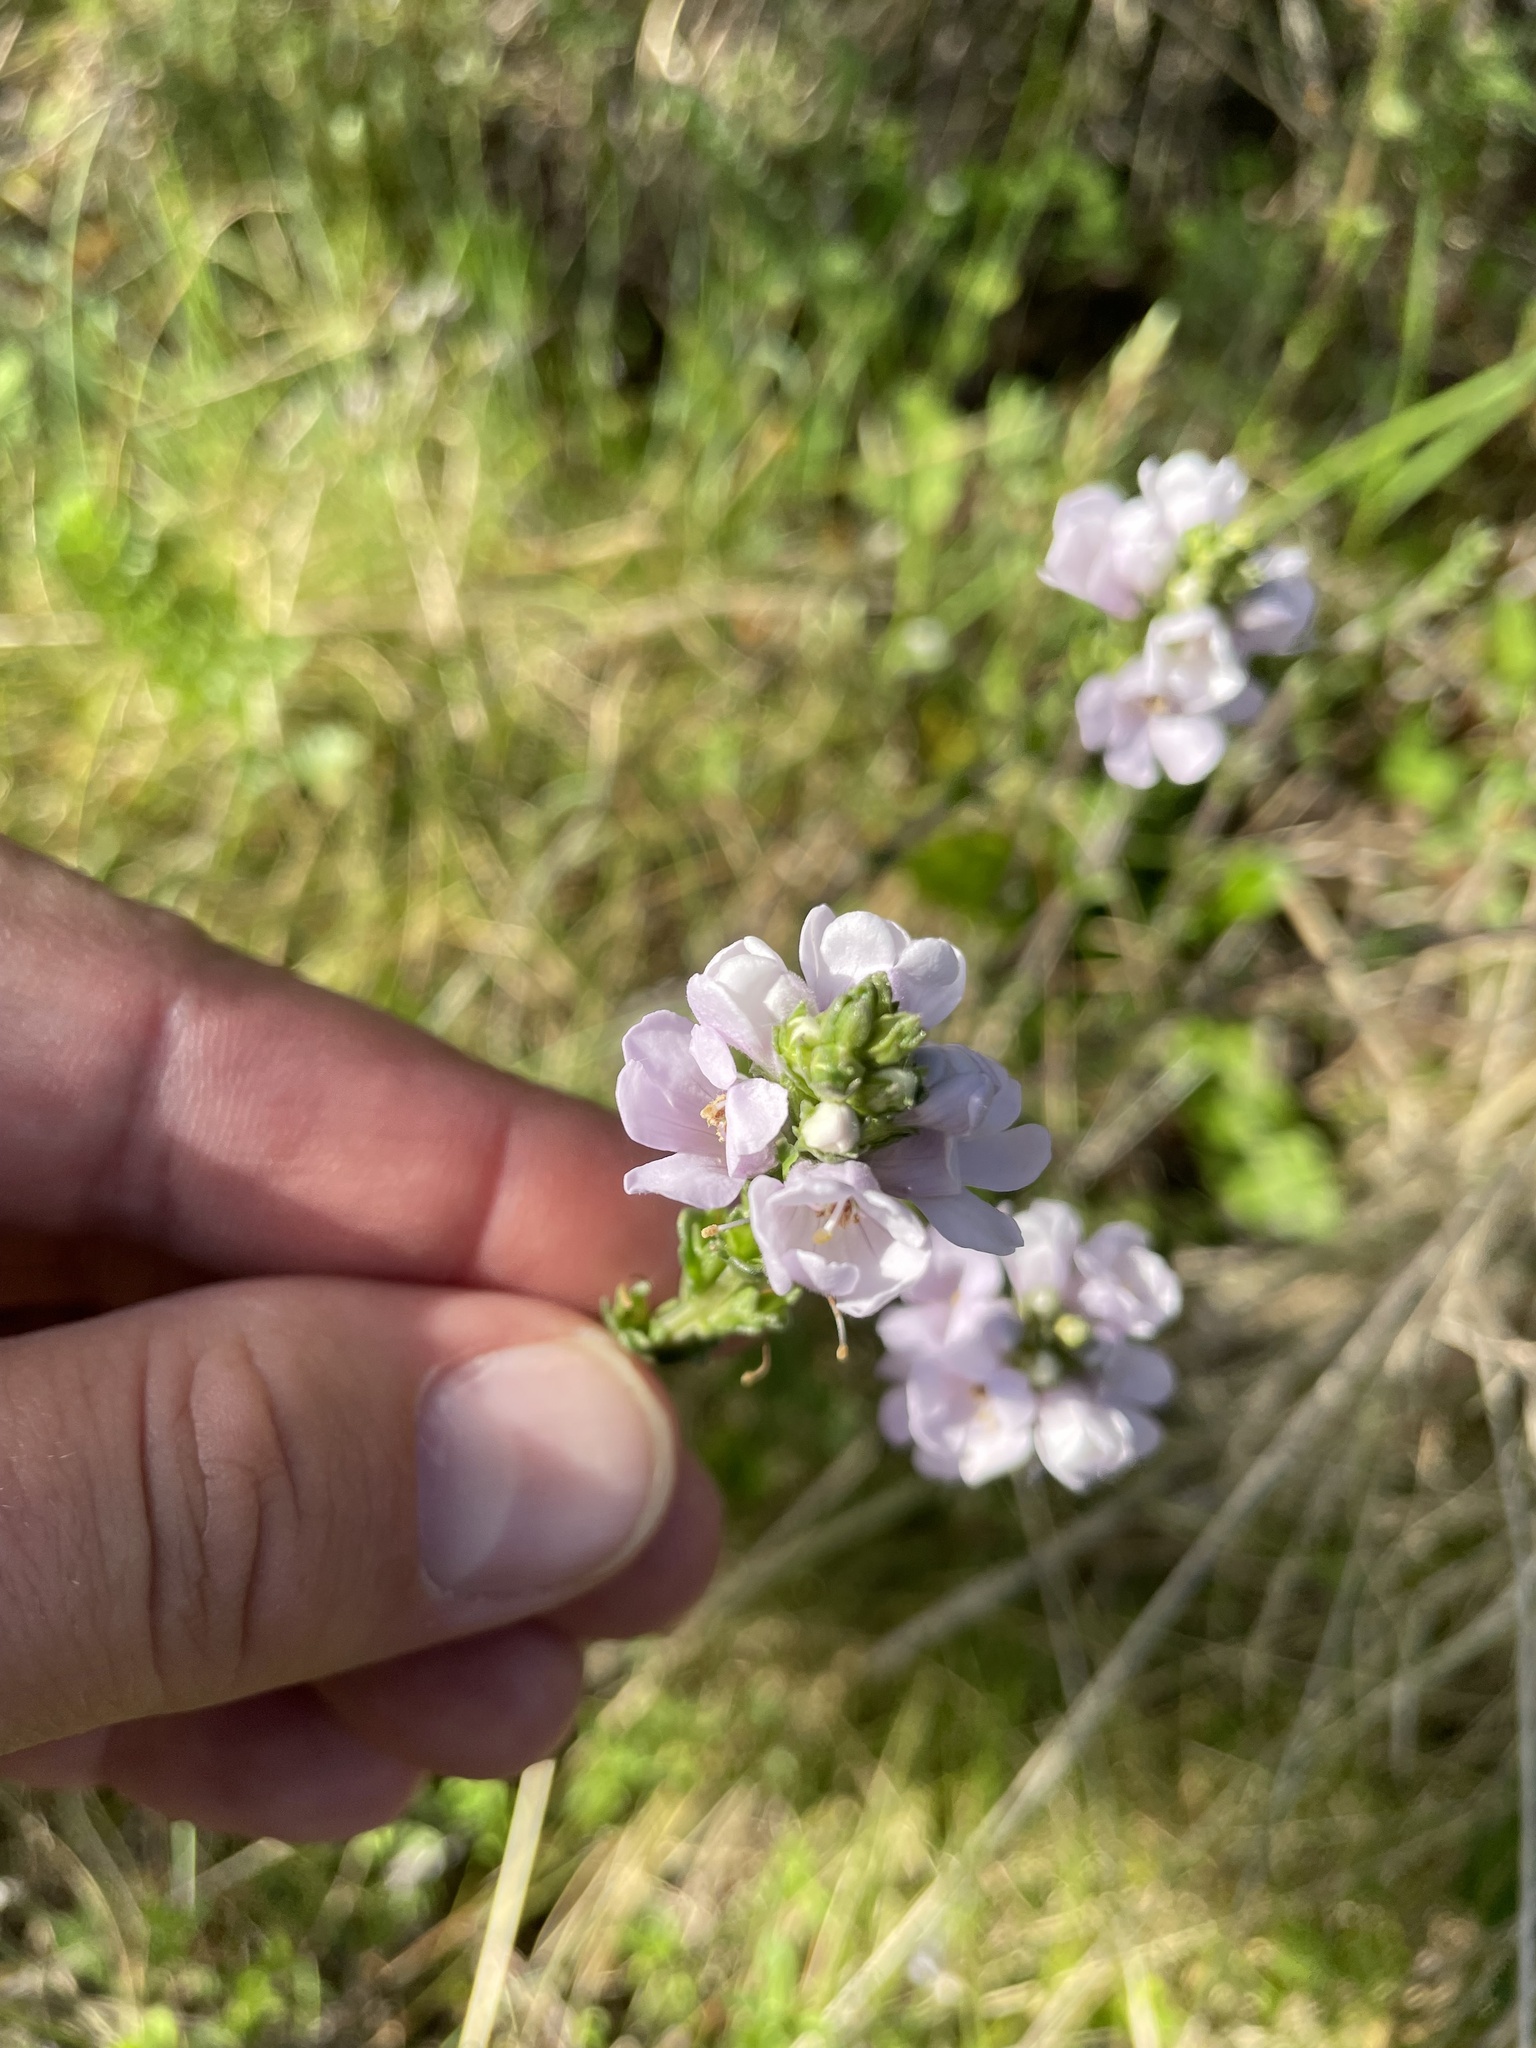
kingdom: Plantae
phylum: Tracheophyta
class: Magnoliopsida
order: Lamiales
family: Orobanchaceae
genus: Euphrasia
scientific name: Euphrasia collina
